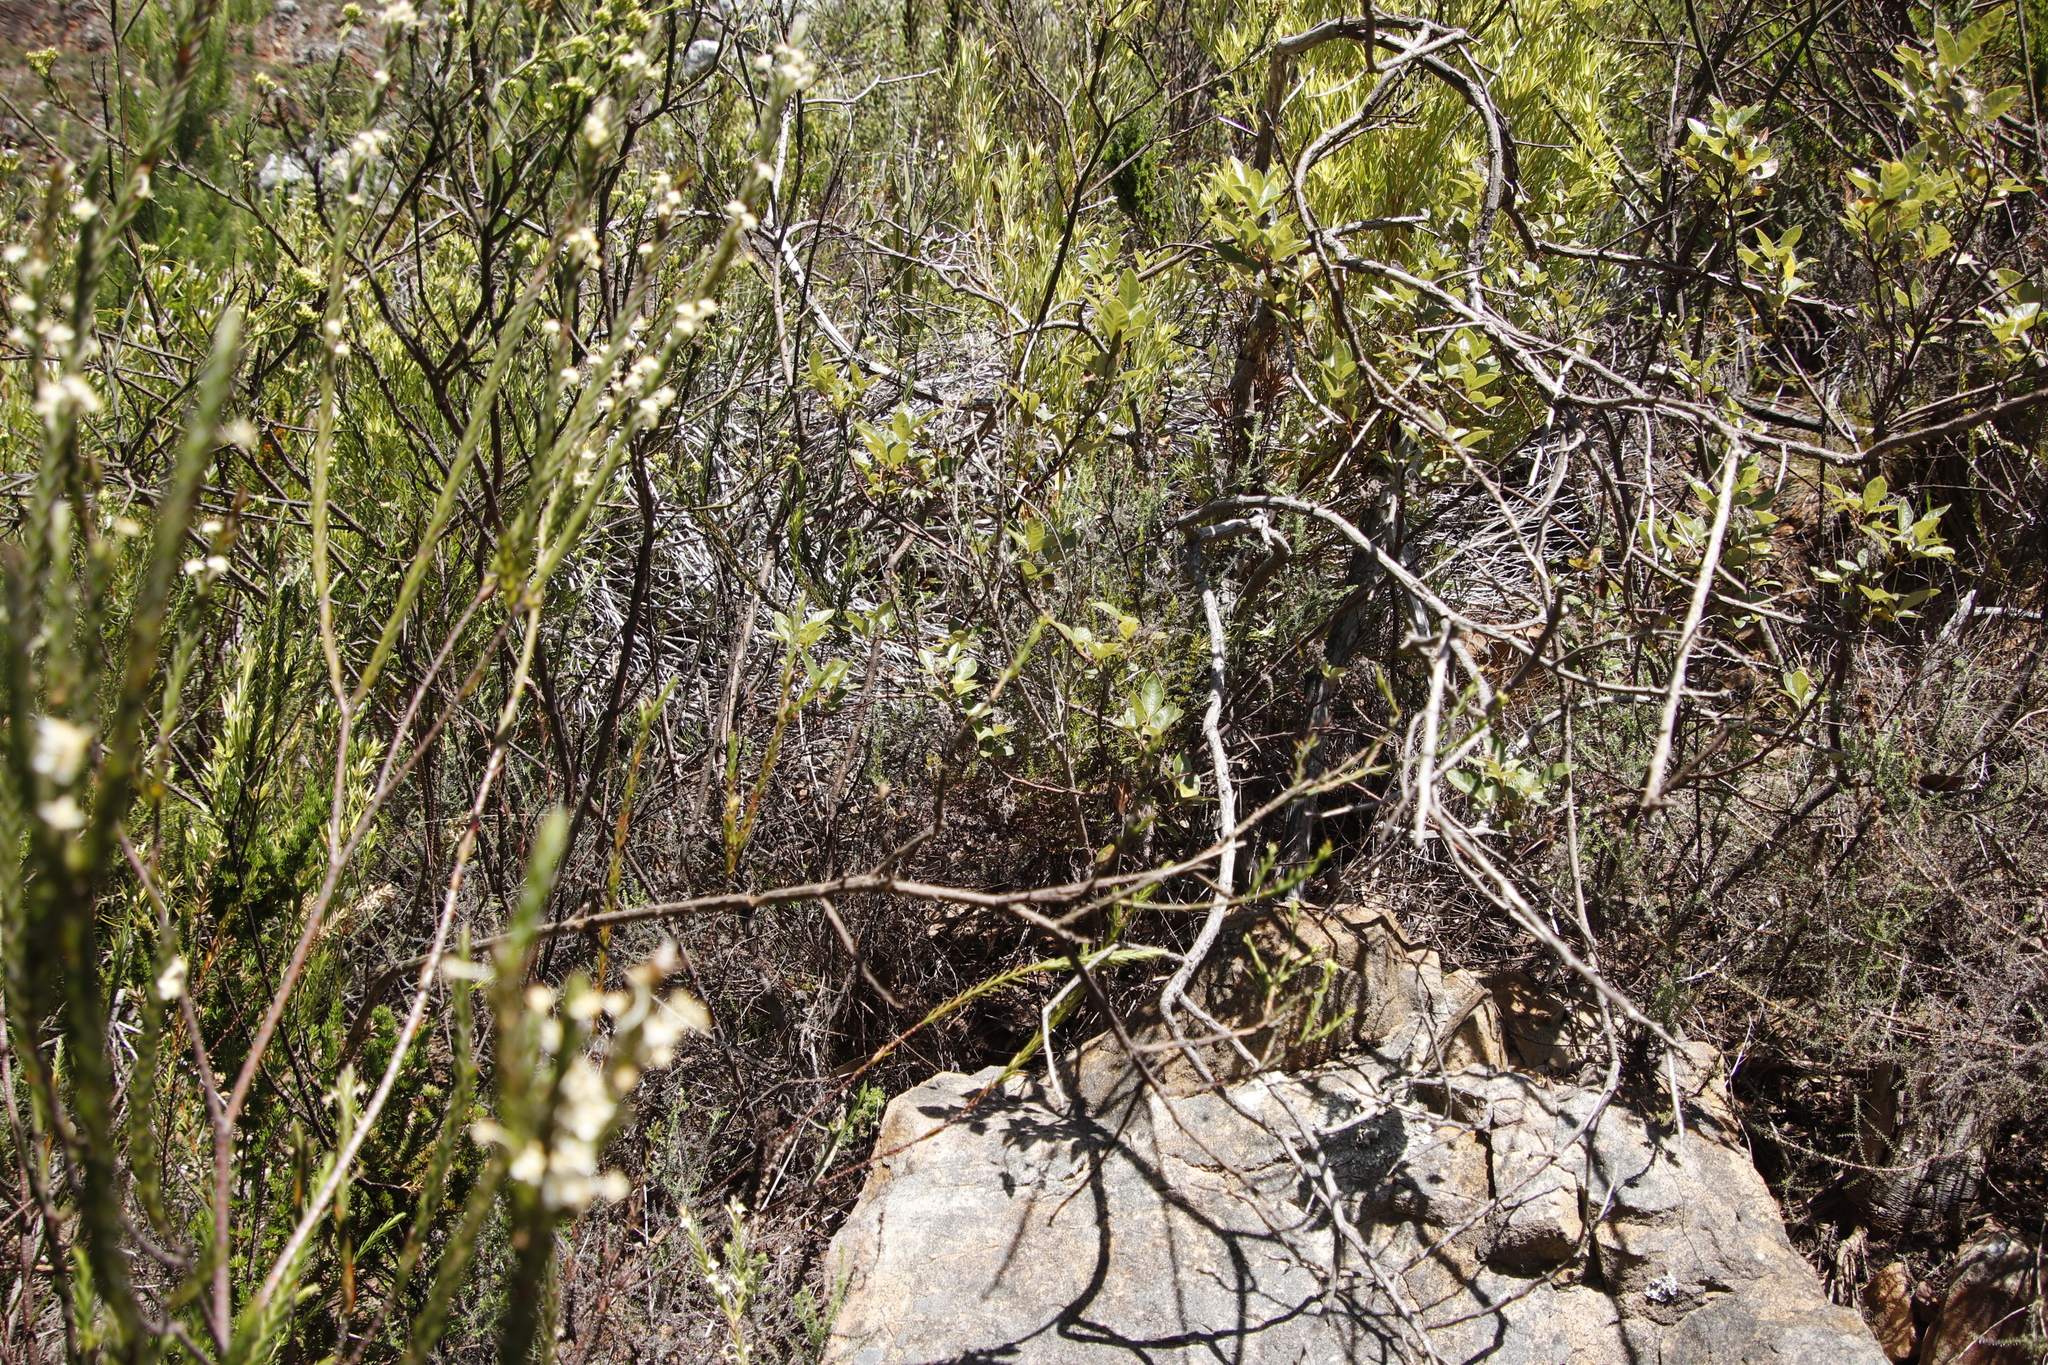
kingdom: Plantae
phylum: Tracheophyta
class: Magnoliopsida
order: Sapindales
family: Anacardiaceae
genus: Searsia
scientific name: Searsia tomentosa
